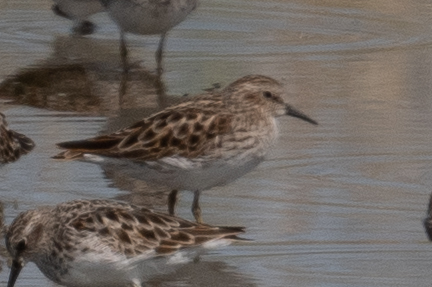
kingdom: Animalia
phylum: Chordata
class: Aves
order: Charadriiformes
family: Scolopacidae
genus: Calidris
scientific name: Calidris minutilla
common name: Least sandpiper
